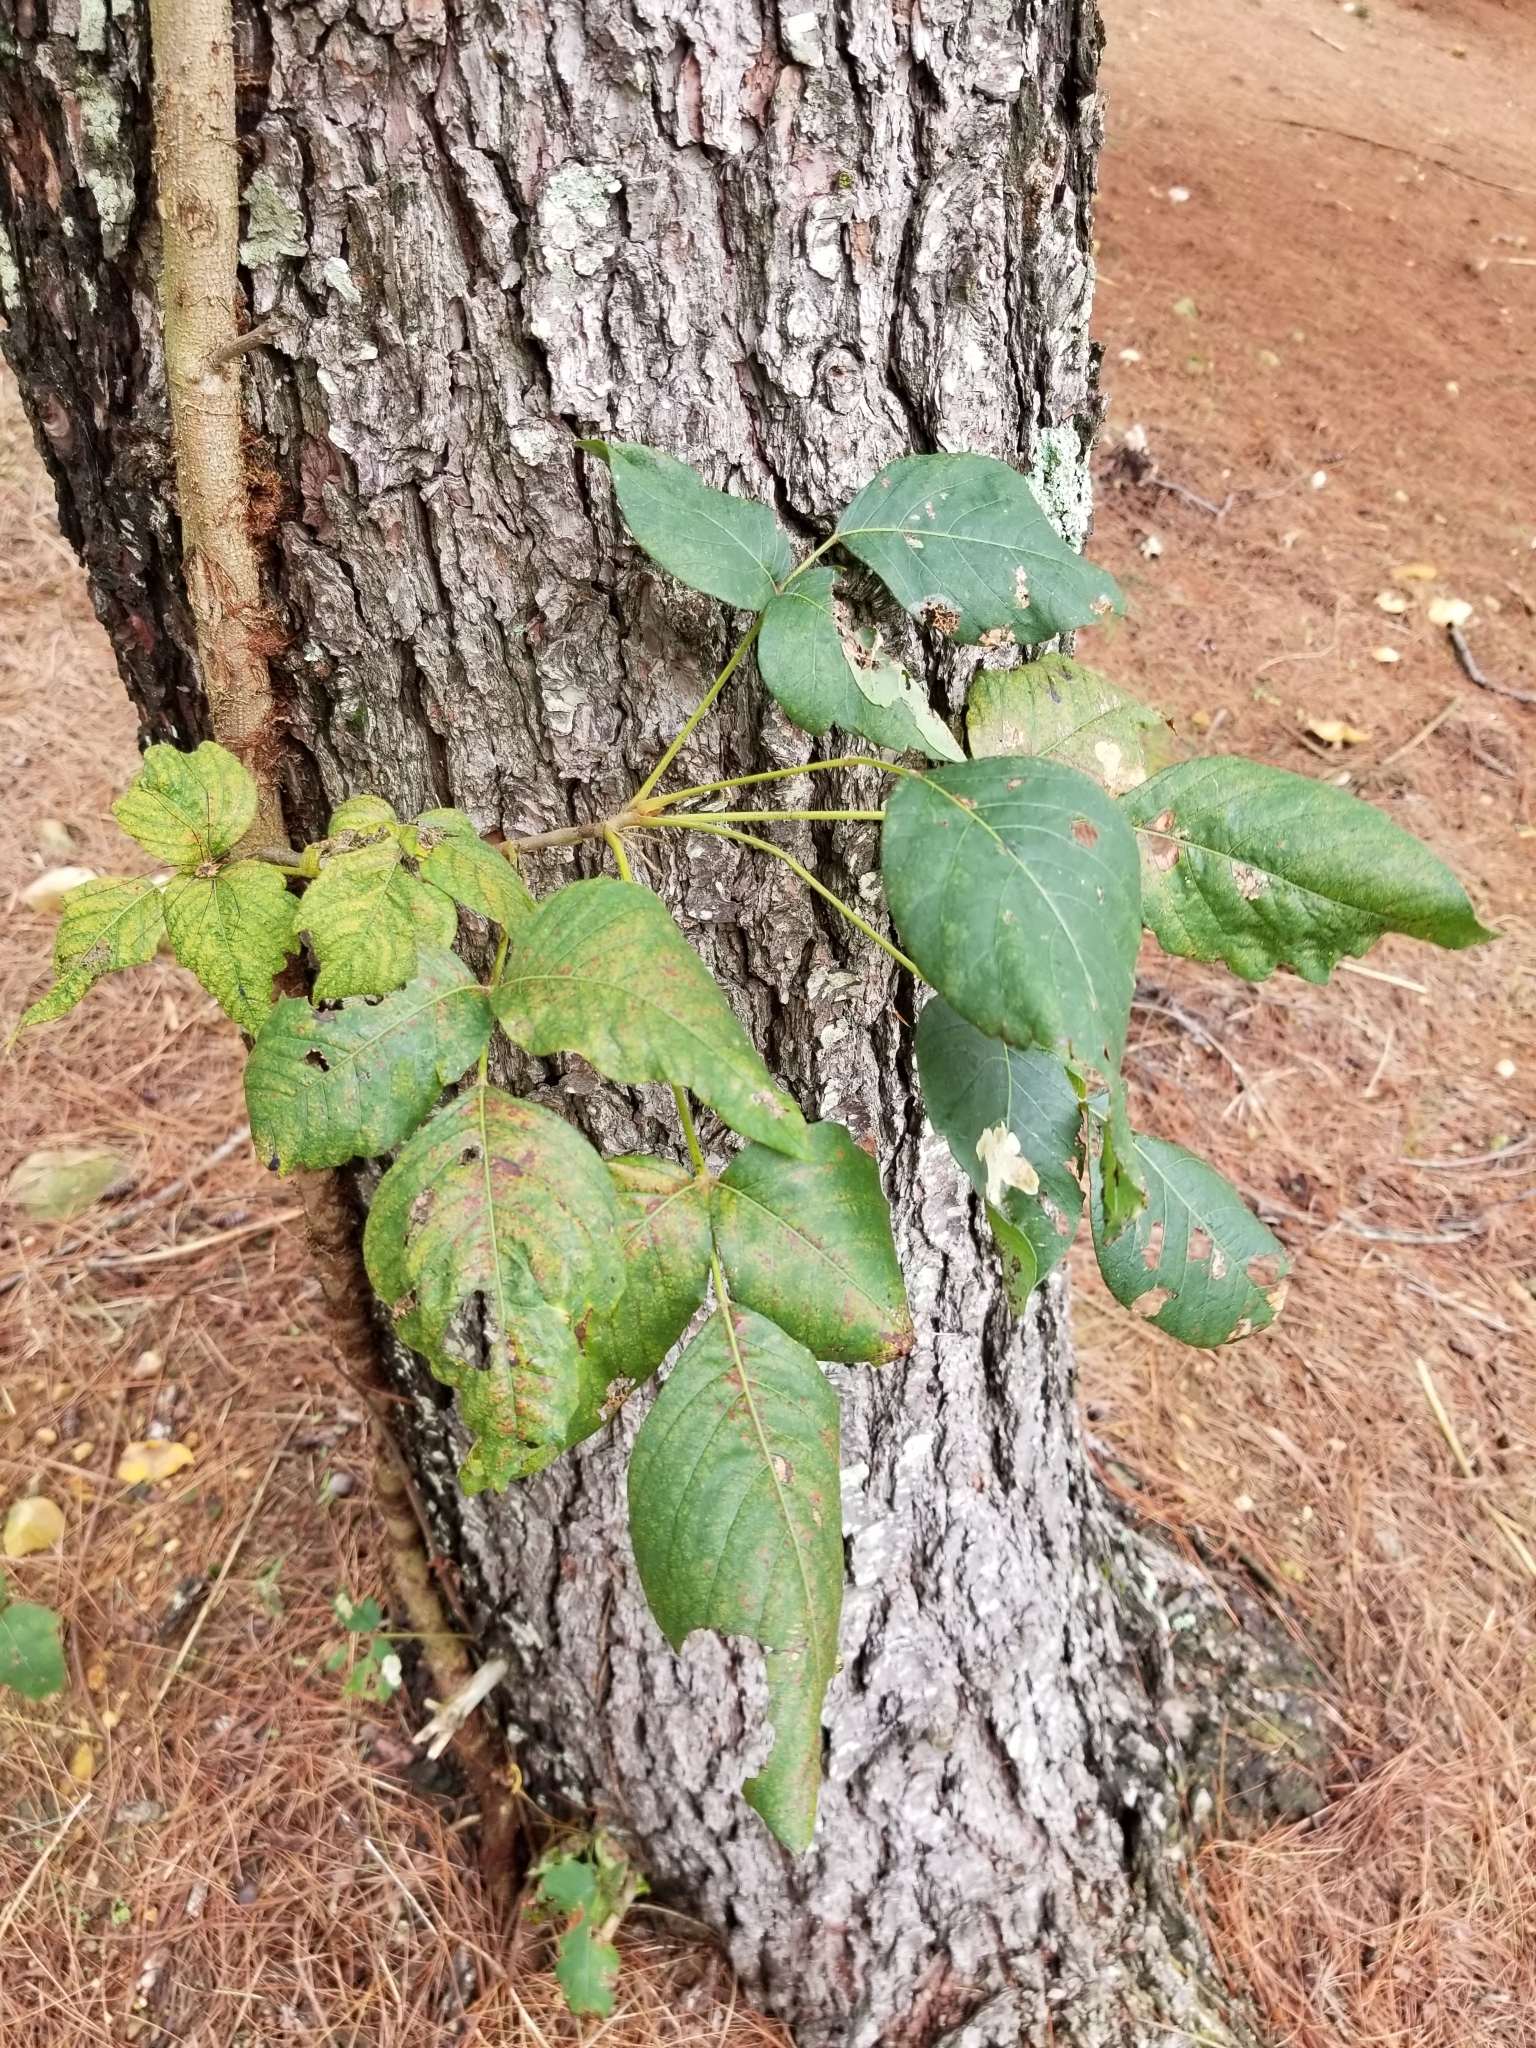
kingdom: Plantae
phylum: Tracheophyta
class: Magnoliopsida
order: Sapindales
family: Anacardiaceae
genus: Toxicodendron
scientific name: Toxicodendron radicans
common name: Poison ivy
